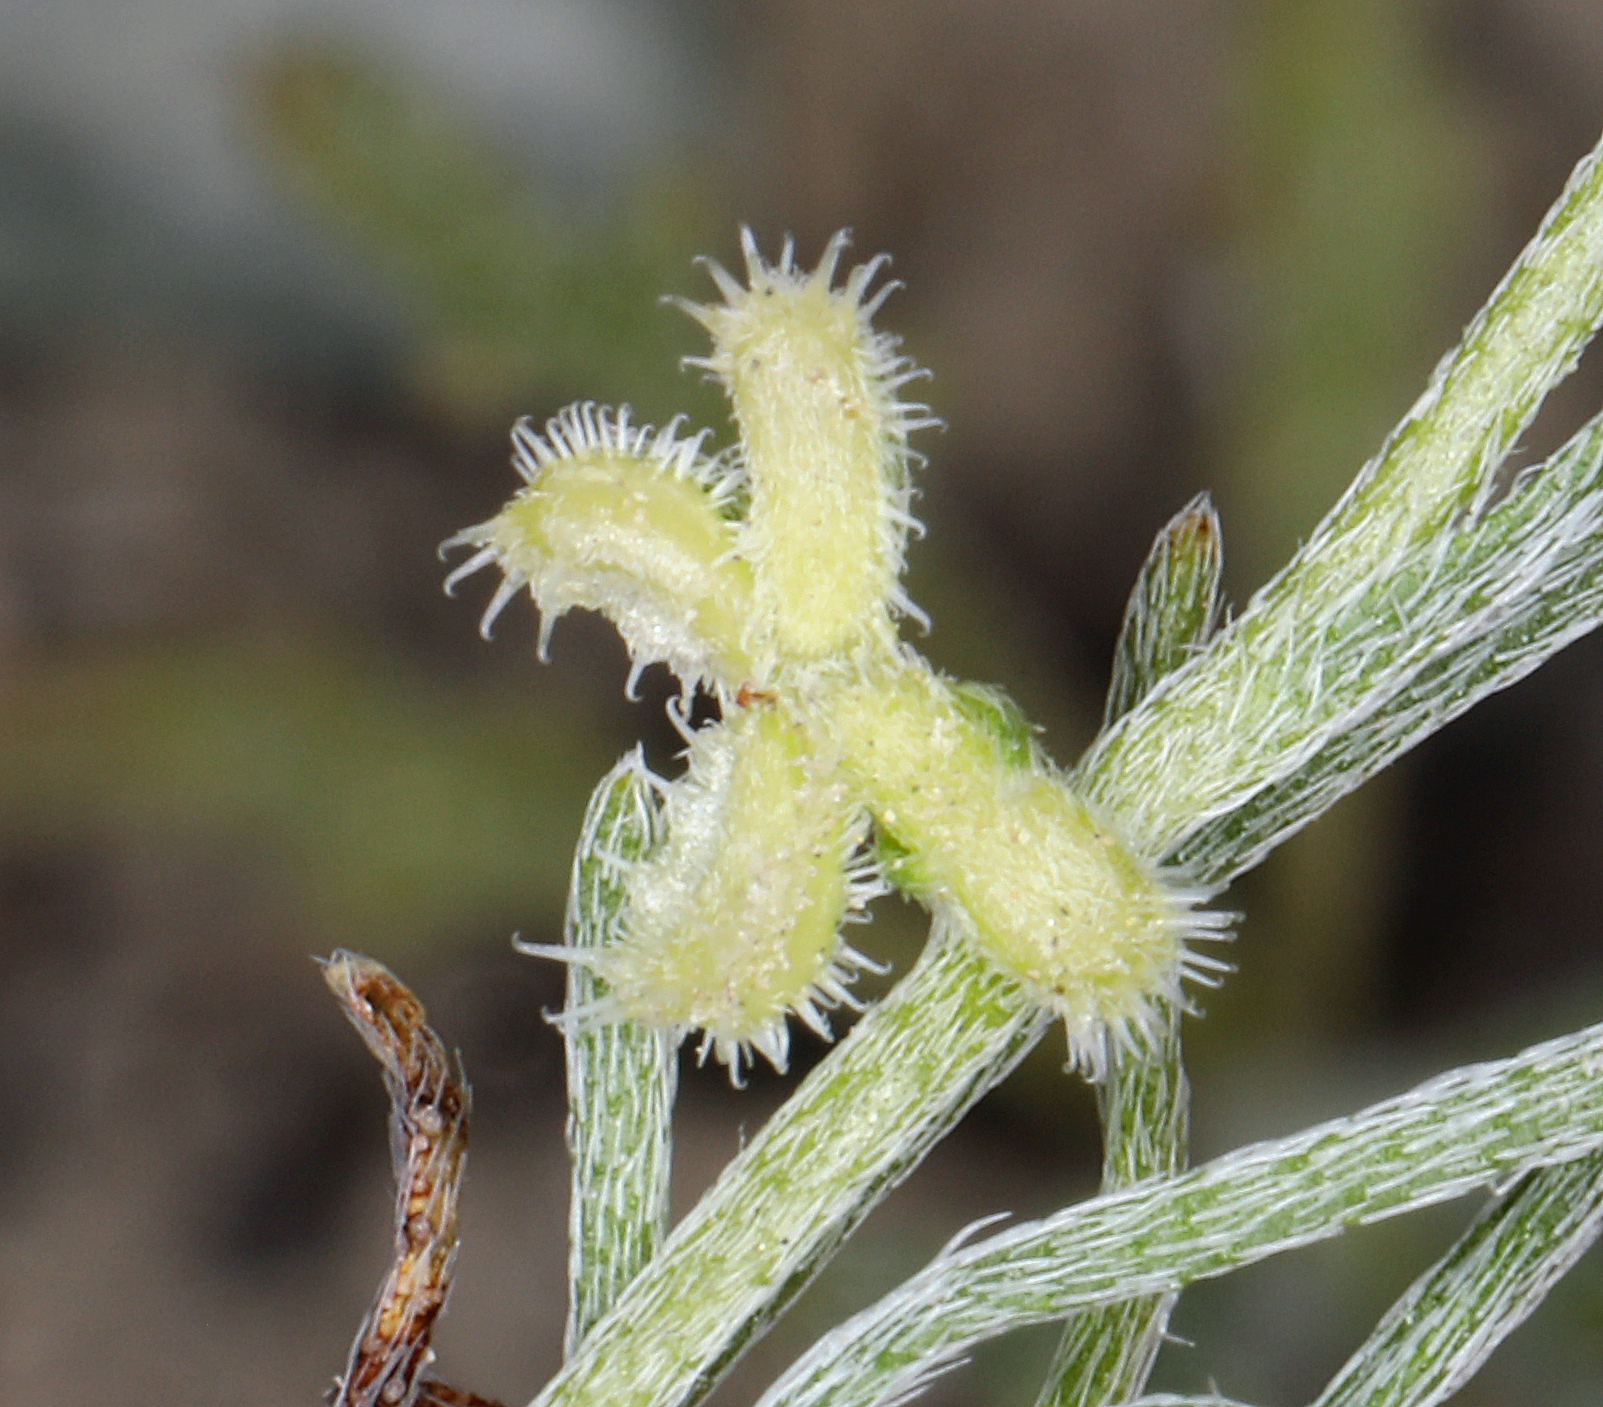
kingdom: Plantae
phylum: Tracheophyta
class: Magnoliopsida
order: Boraginales
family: Boraginaceae
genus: Pectocarya
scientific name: Pectocarya heterocarpa
